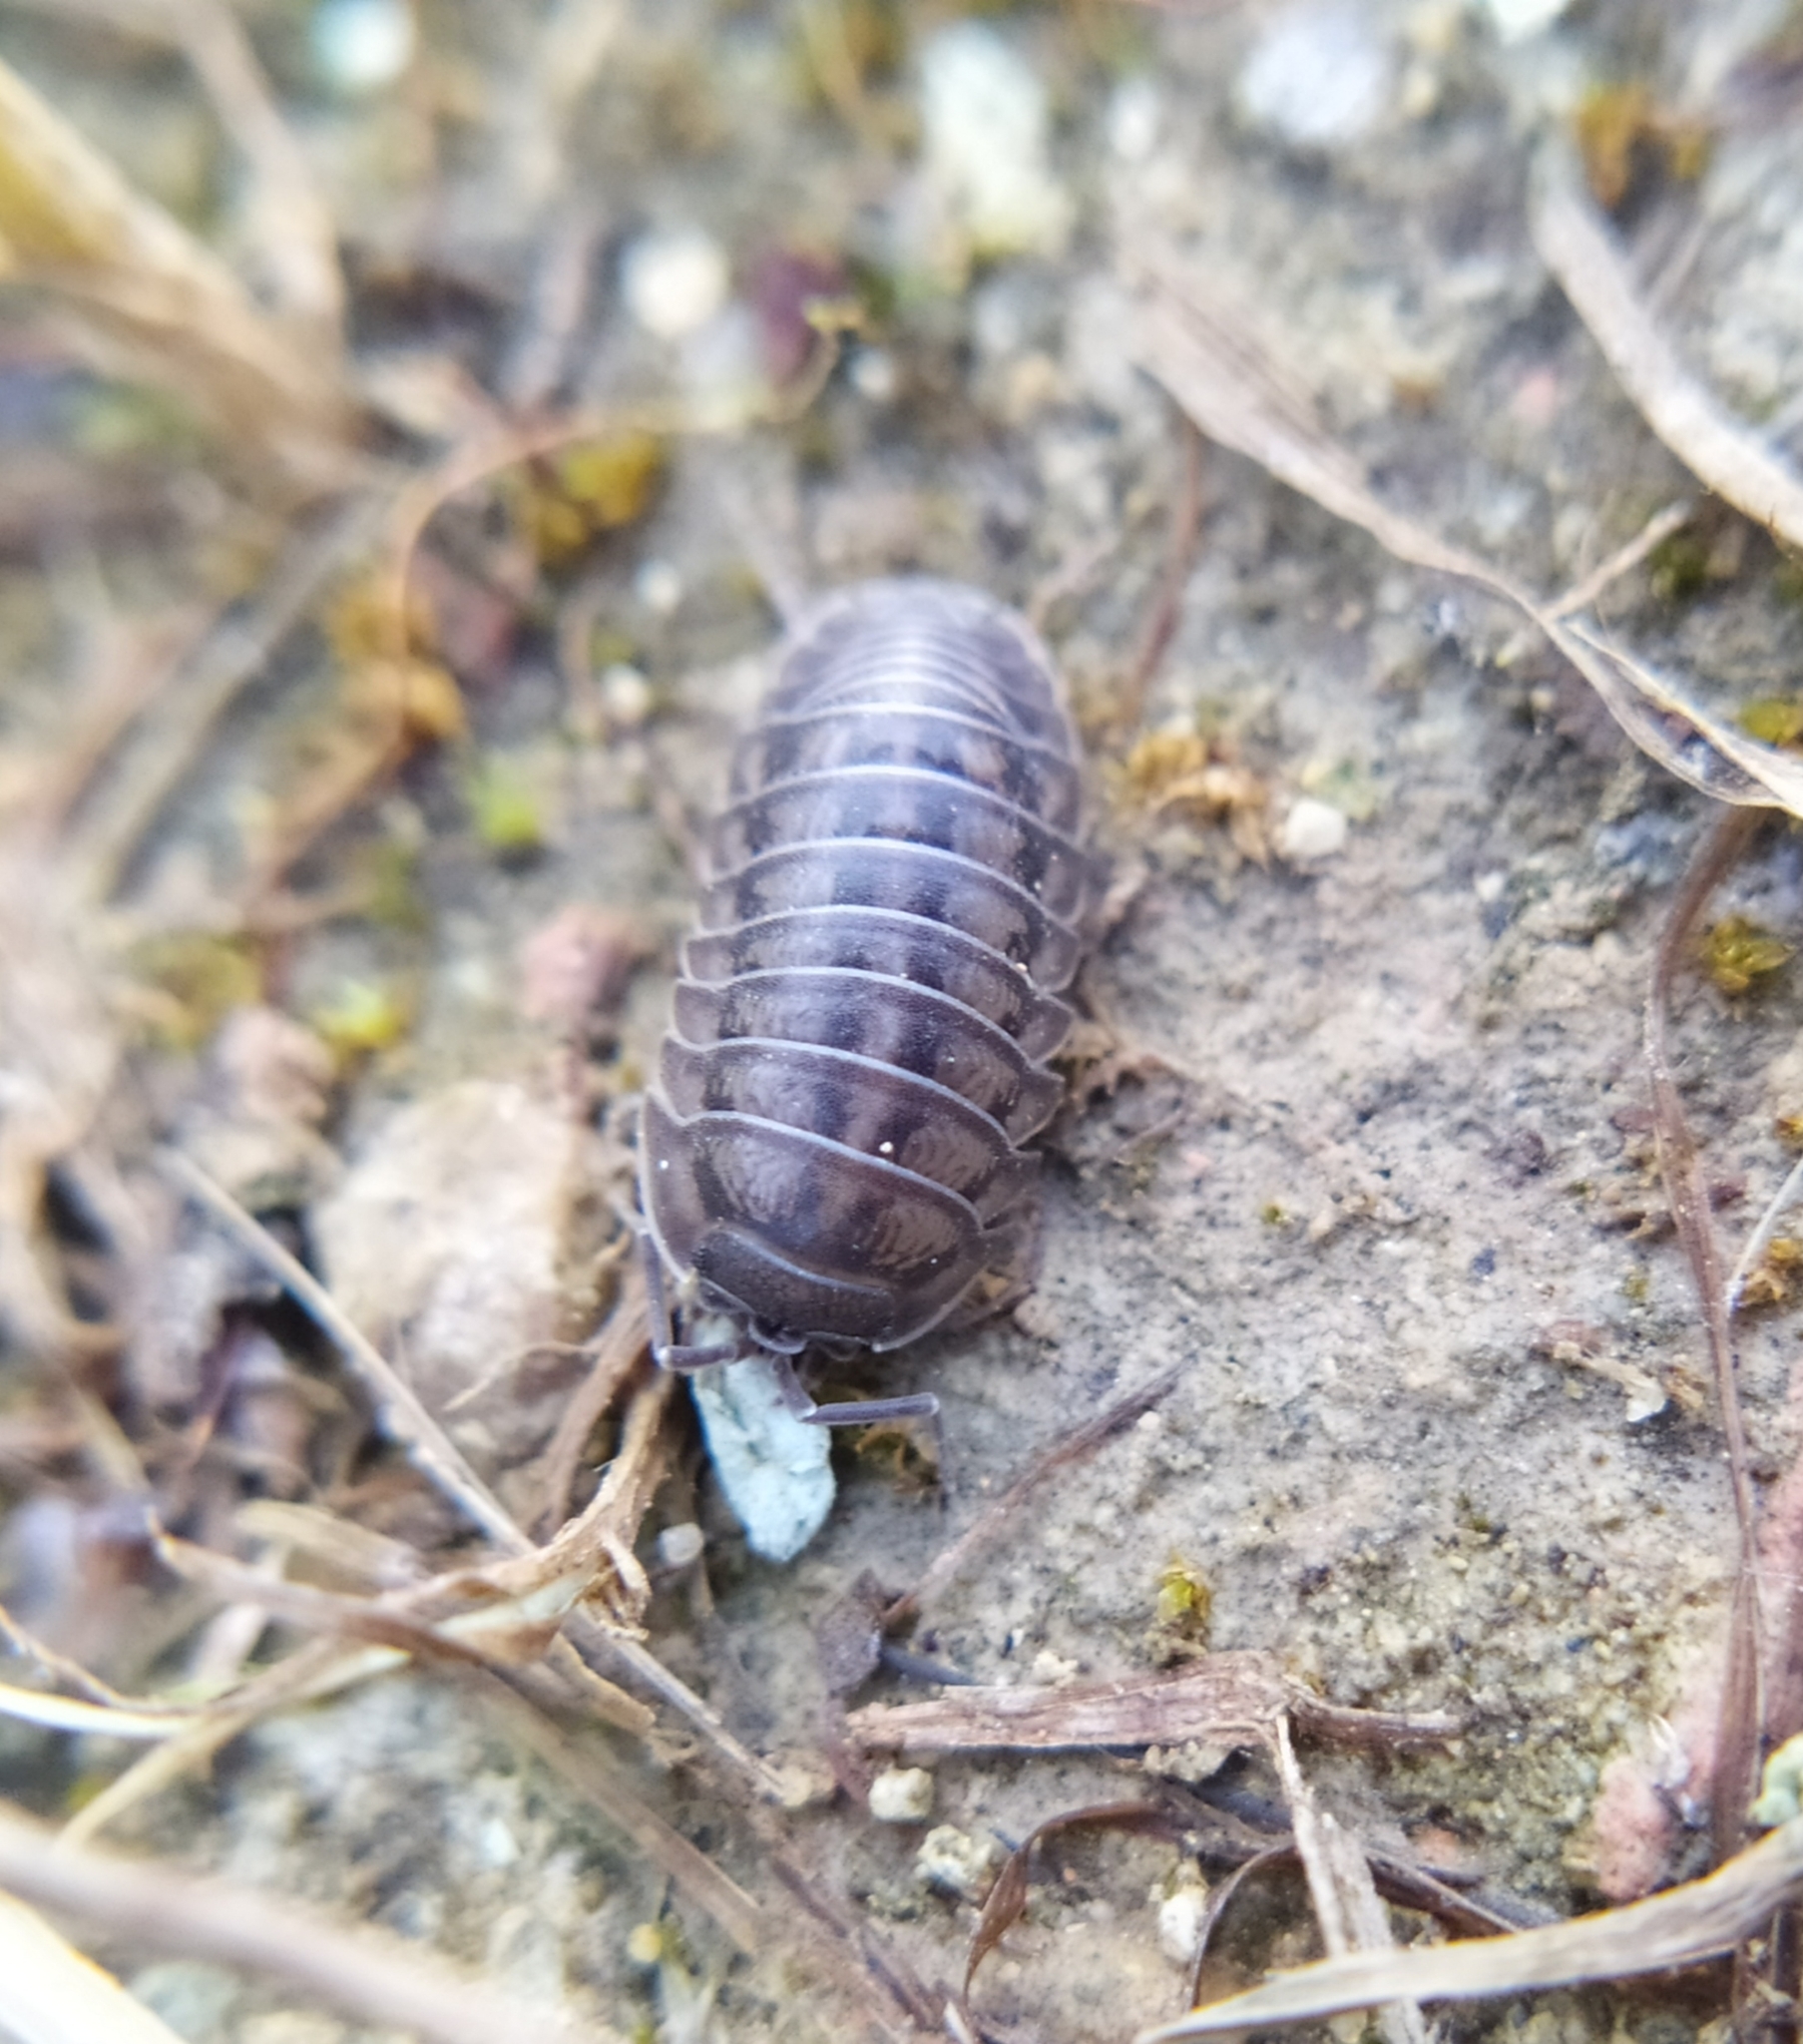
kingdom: Animalia
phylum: Arthropoda
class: Malacostraca
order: Isopoda
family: Armadillidiidae
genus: Armadillidium
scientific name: Armadillidium nasatum
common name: Isopod
